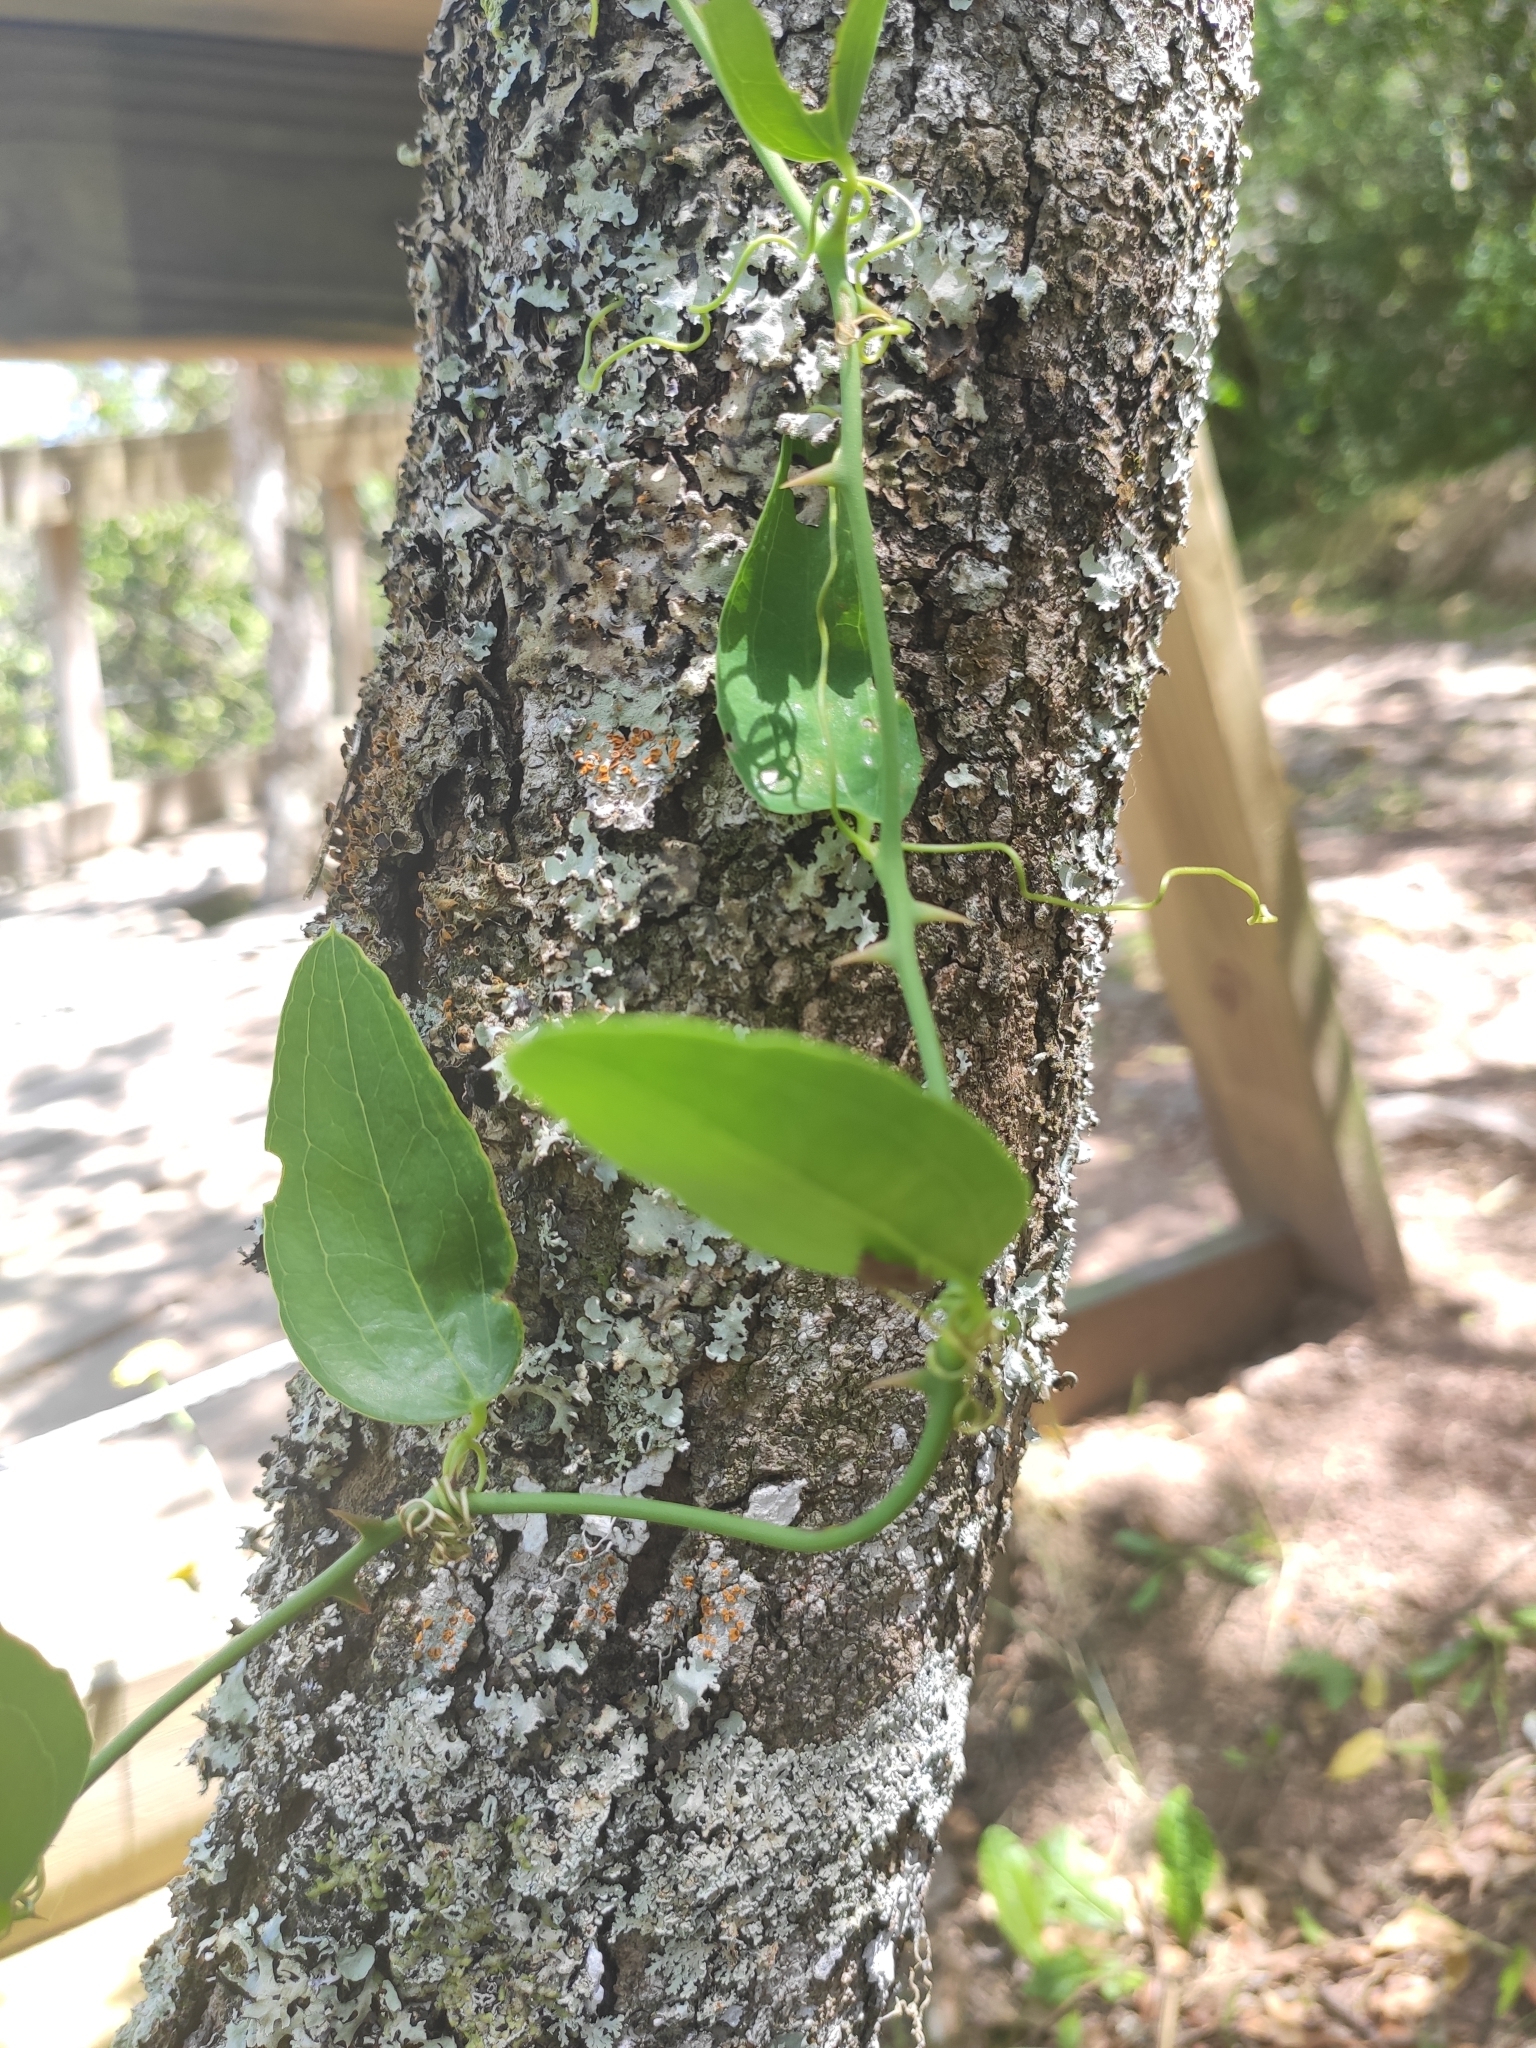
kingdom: Plantae
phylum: Tracheophyta
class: Liliopsida
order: Liliales
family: Smilacaceae
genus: Smilax
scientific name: Smilax campestris
